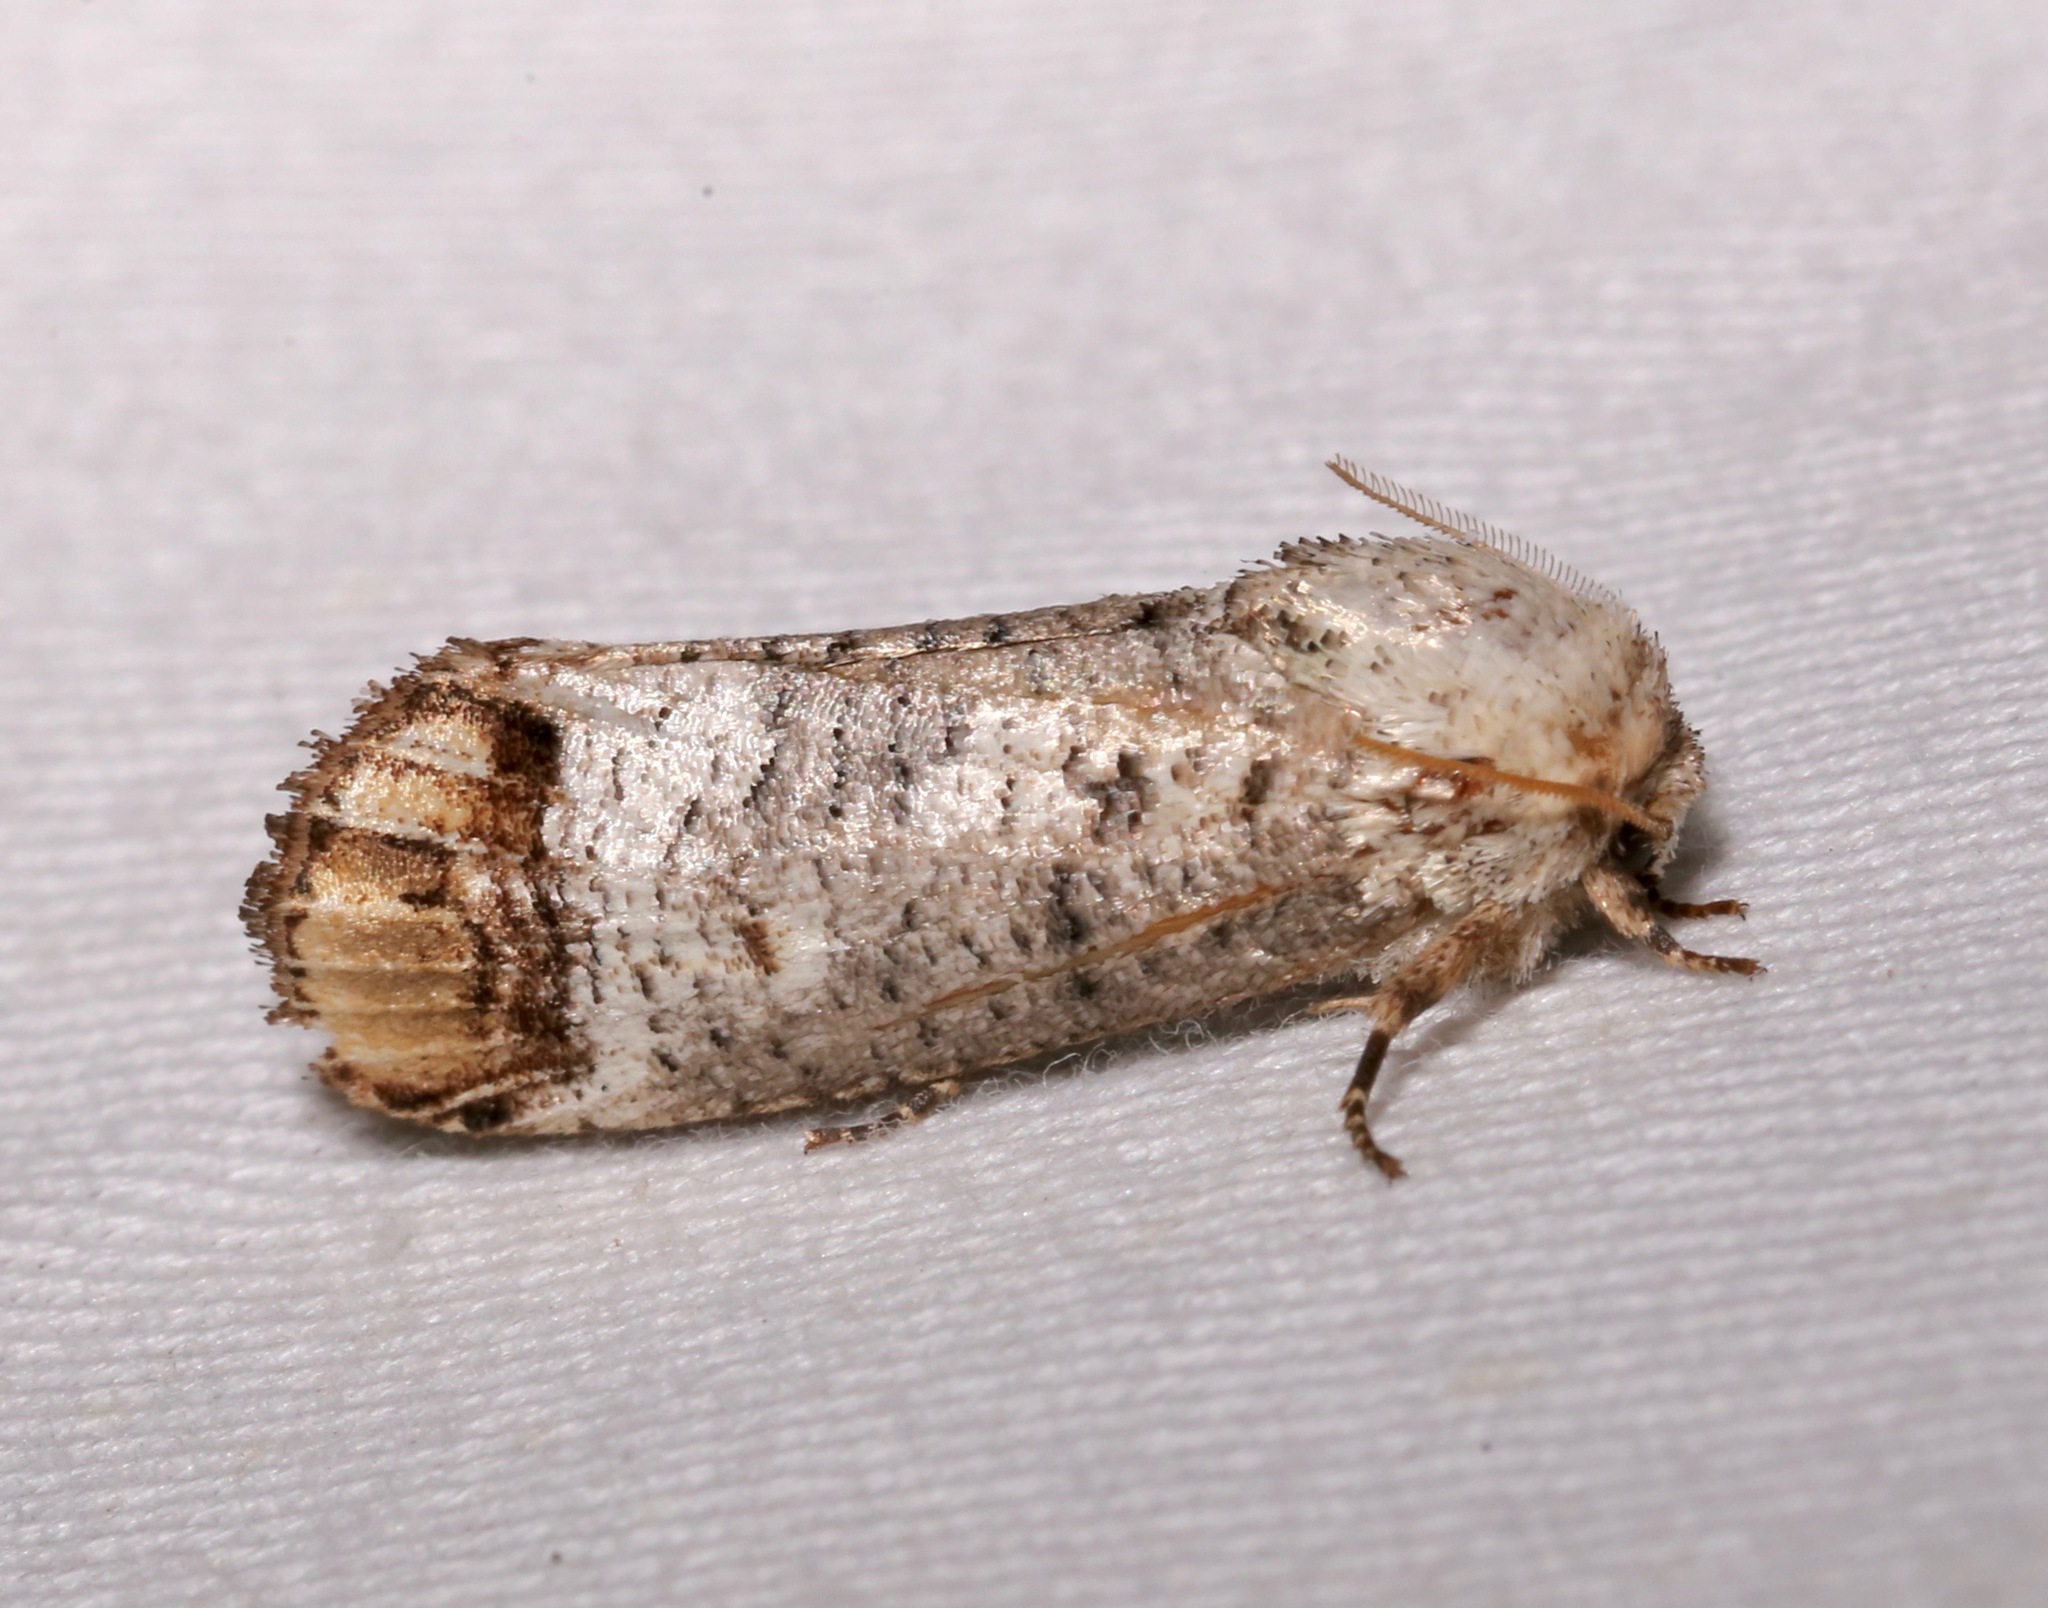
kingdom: Animalia
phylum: Arthropoda
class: Insecta
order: Lepidoptera
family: Cossidae
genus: Cossula
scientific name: Cossula magnifica
